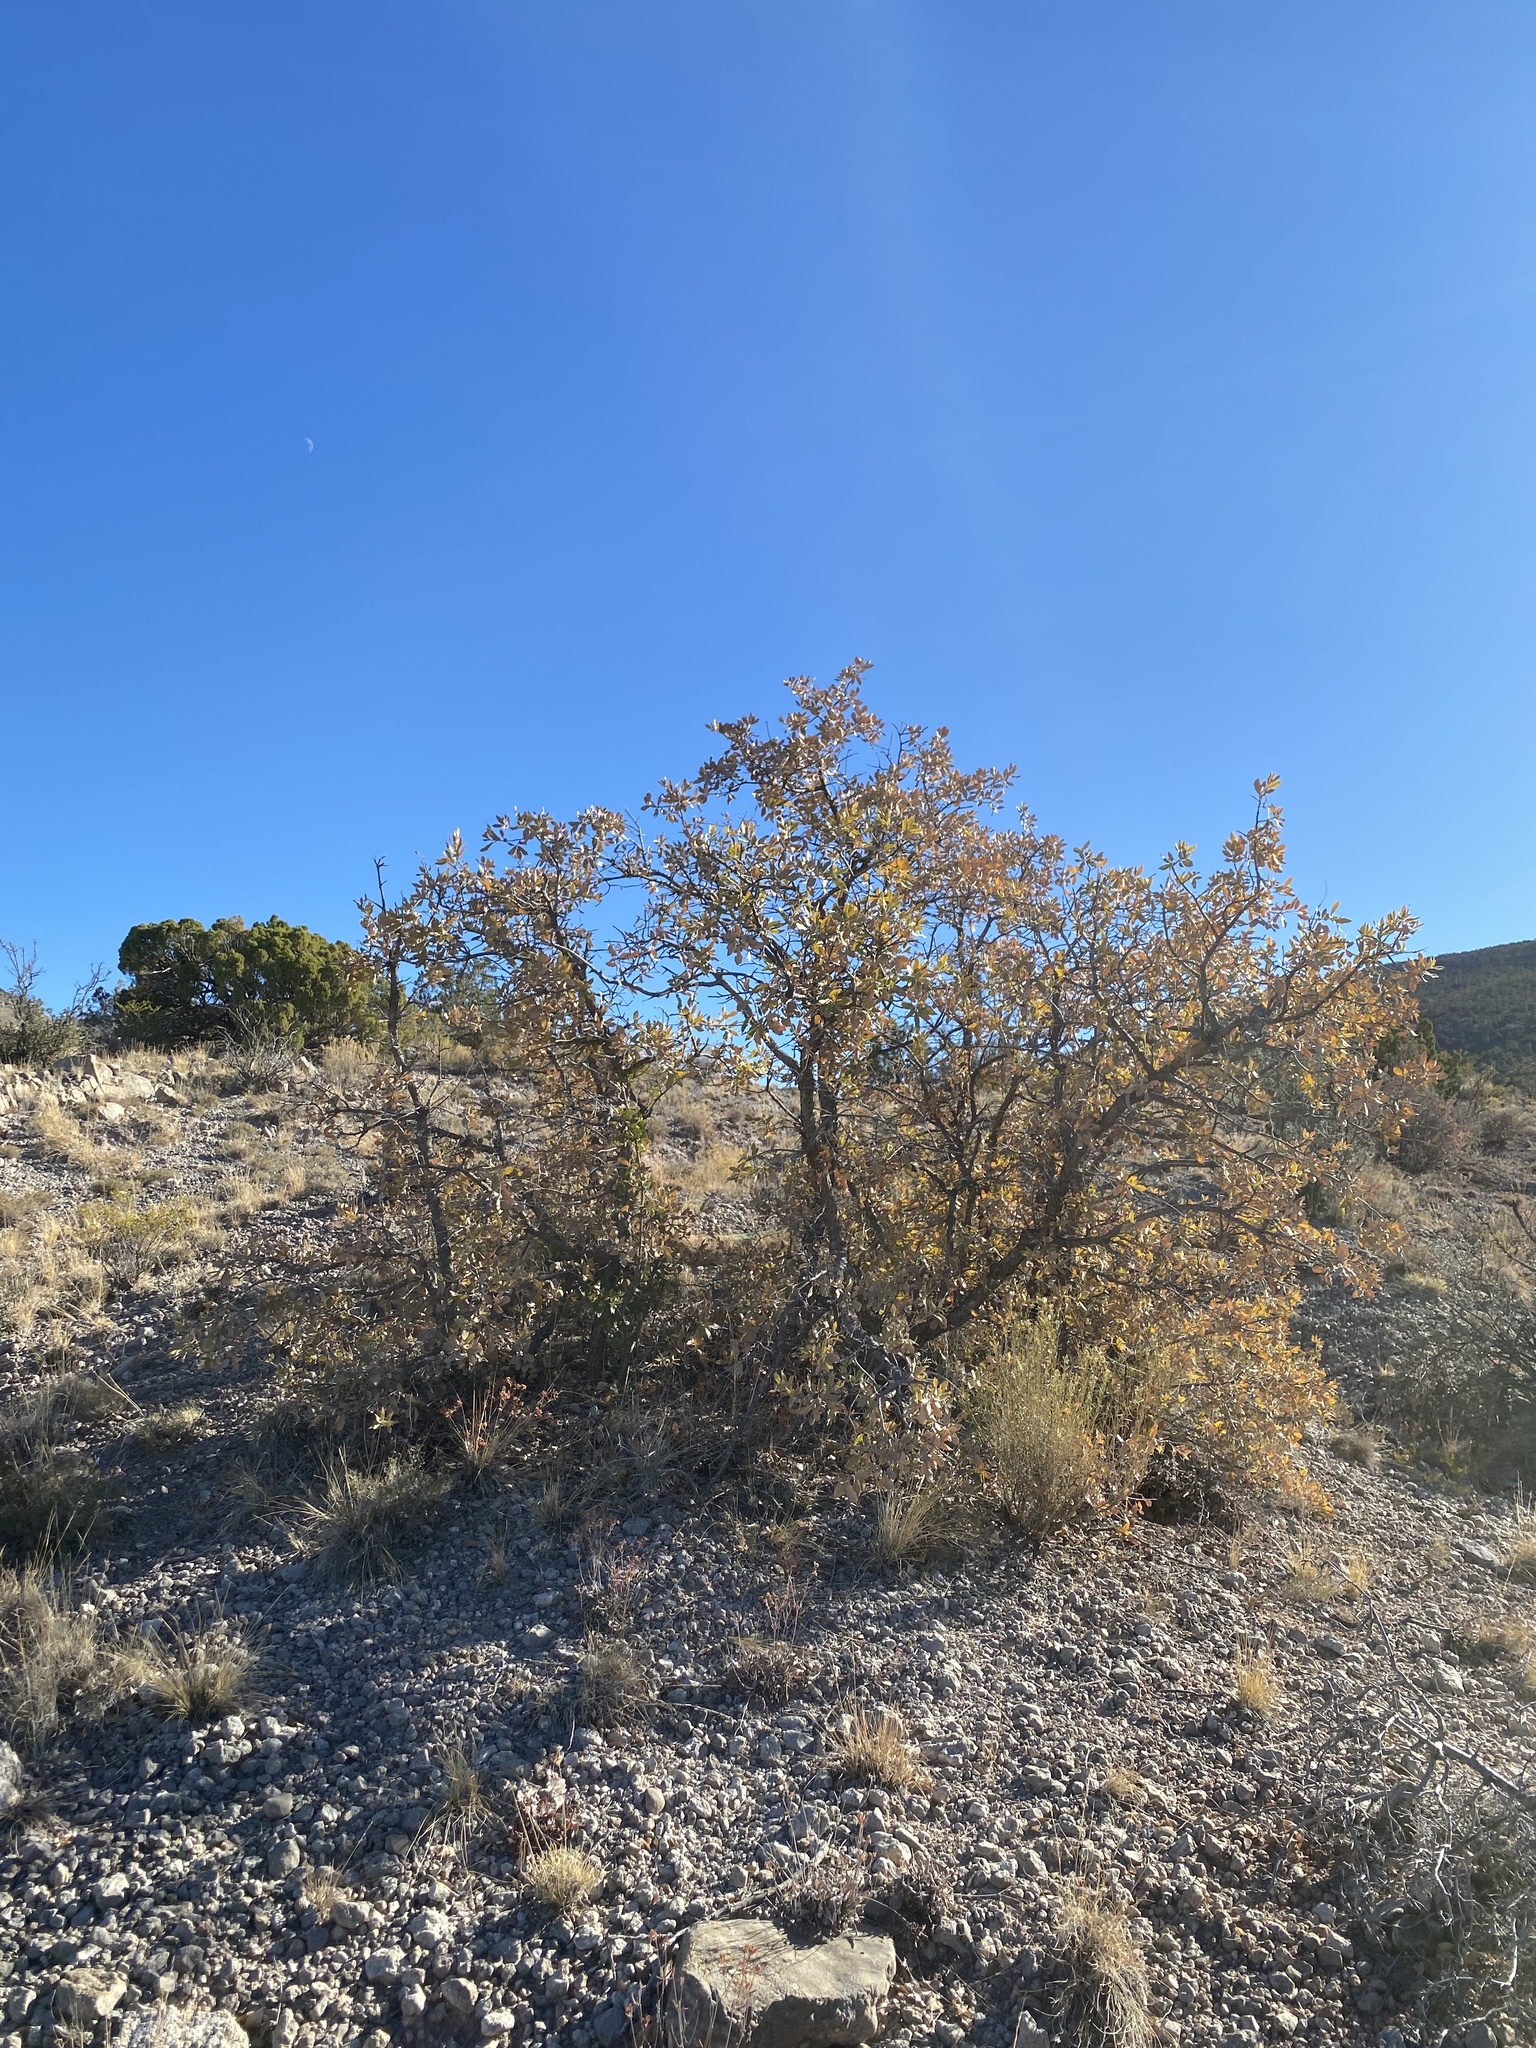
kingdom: Plantae
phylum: Tracheophyta
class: Magnoliopsida
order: Fagales
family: Fagaceae
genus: Quercus
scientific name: Quercus undulata
